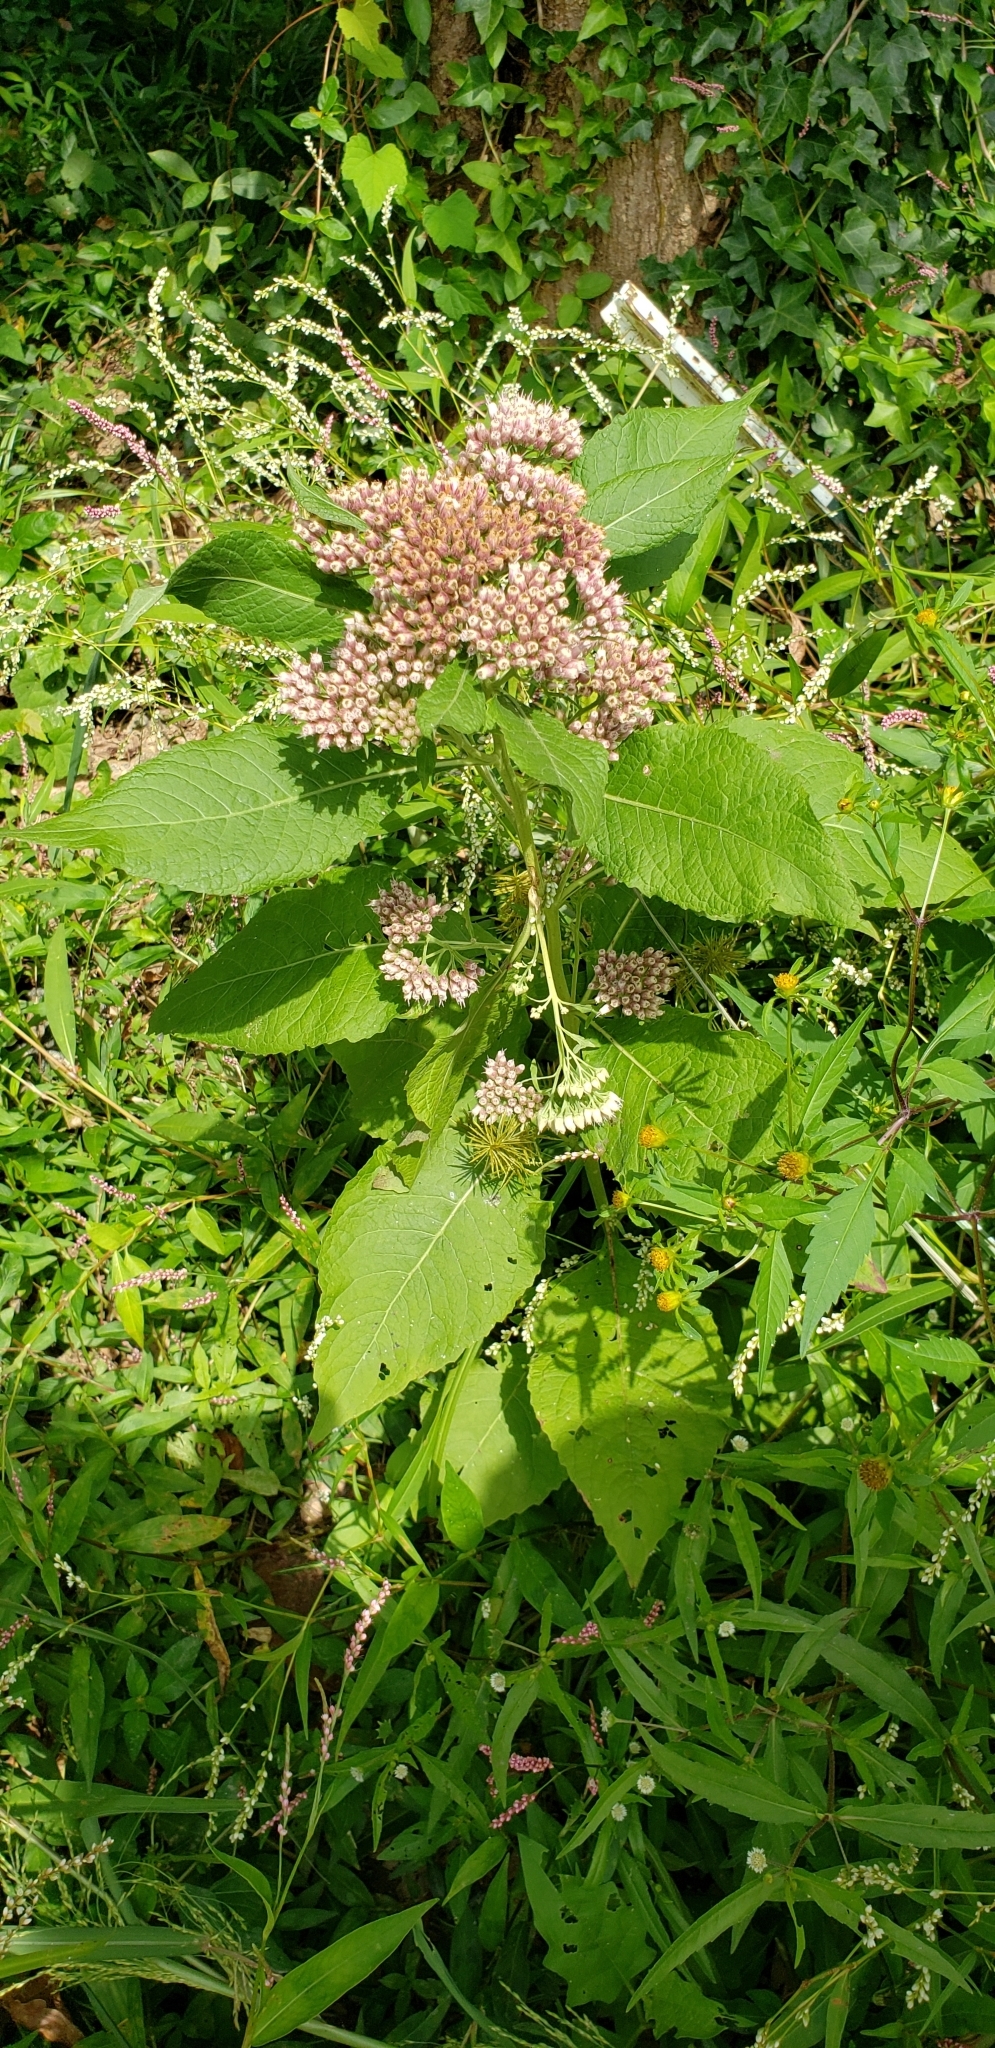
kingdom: Plantae
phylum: Tracheophyta
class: Magnoliopsida
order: Asterales
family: Asteraceae
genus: Pluchea
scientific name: Pluchea camphorata
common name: Camphor pluchea
